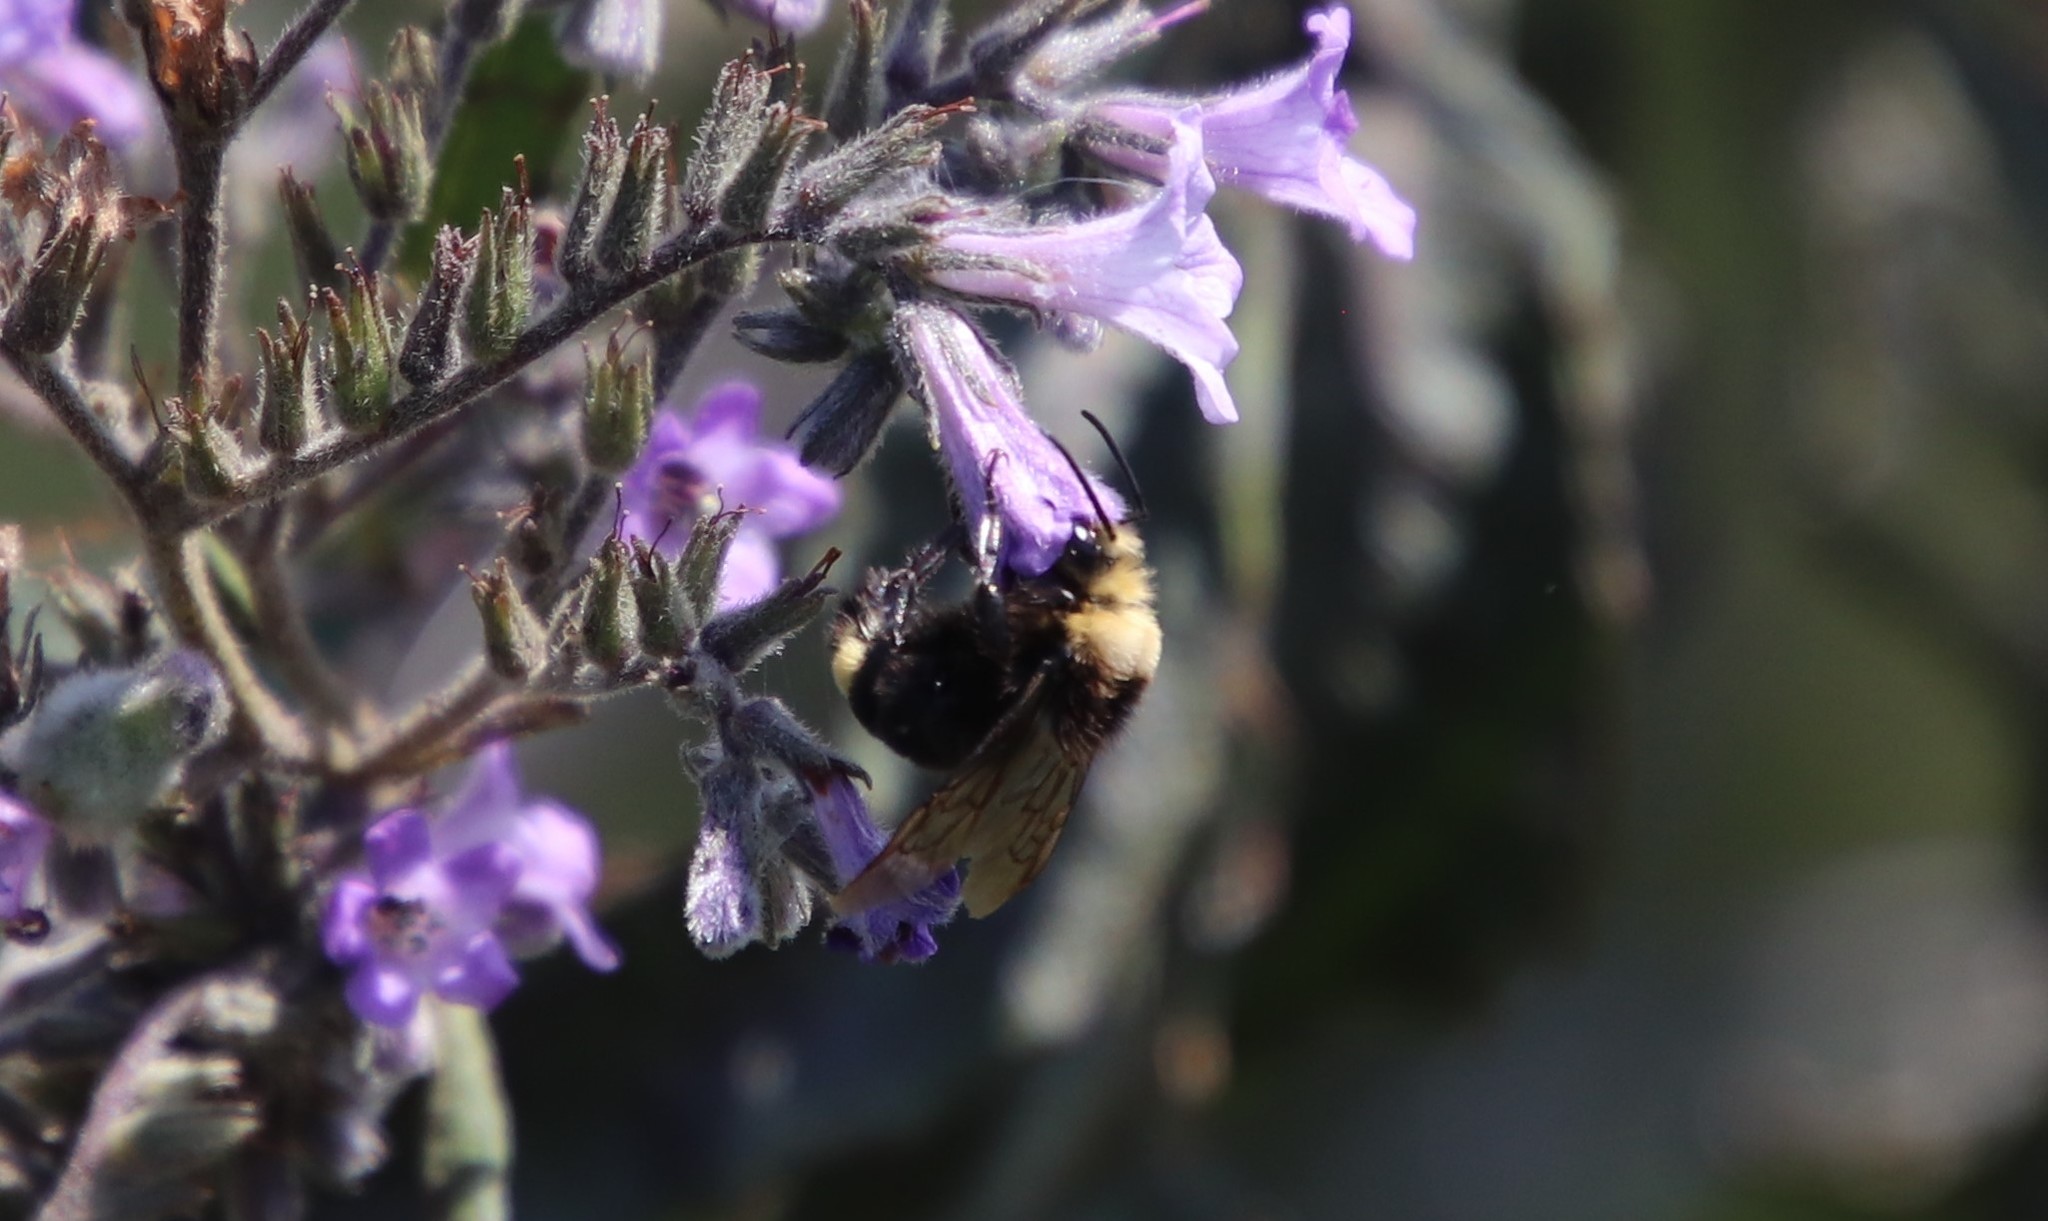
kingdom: Animalia
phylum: Arthropoda
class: Insecta
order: Hymenoptera
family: Apidae
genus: Bombus
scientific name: Bombus vosnesenskii
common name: Vosnesensky bumble bee
